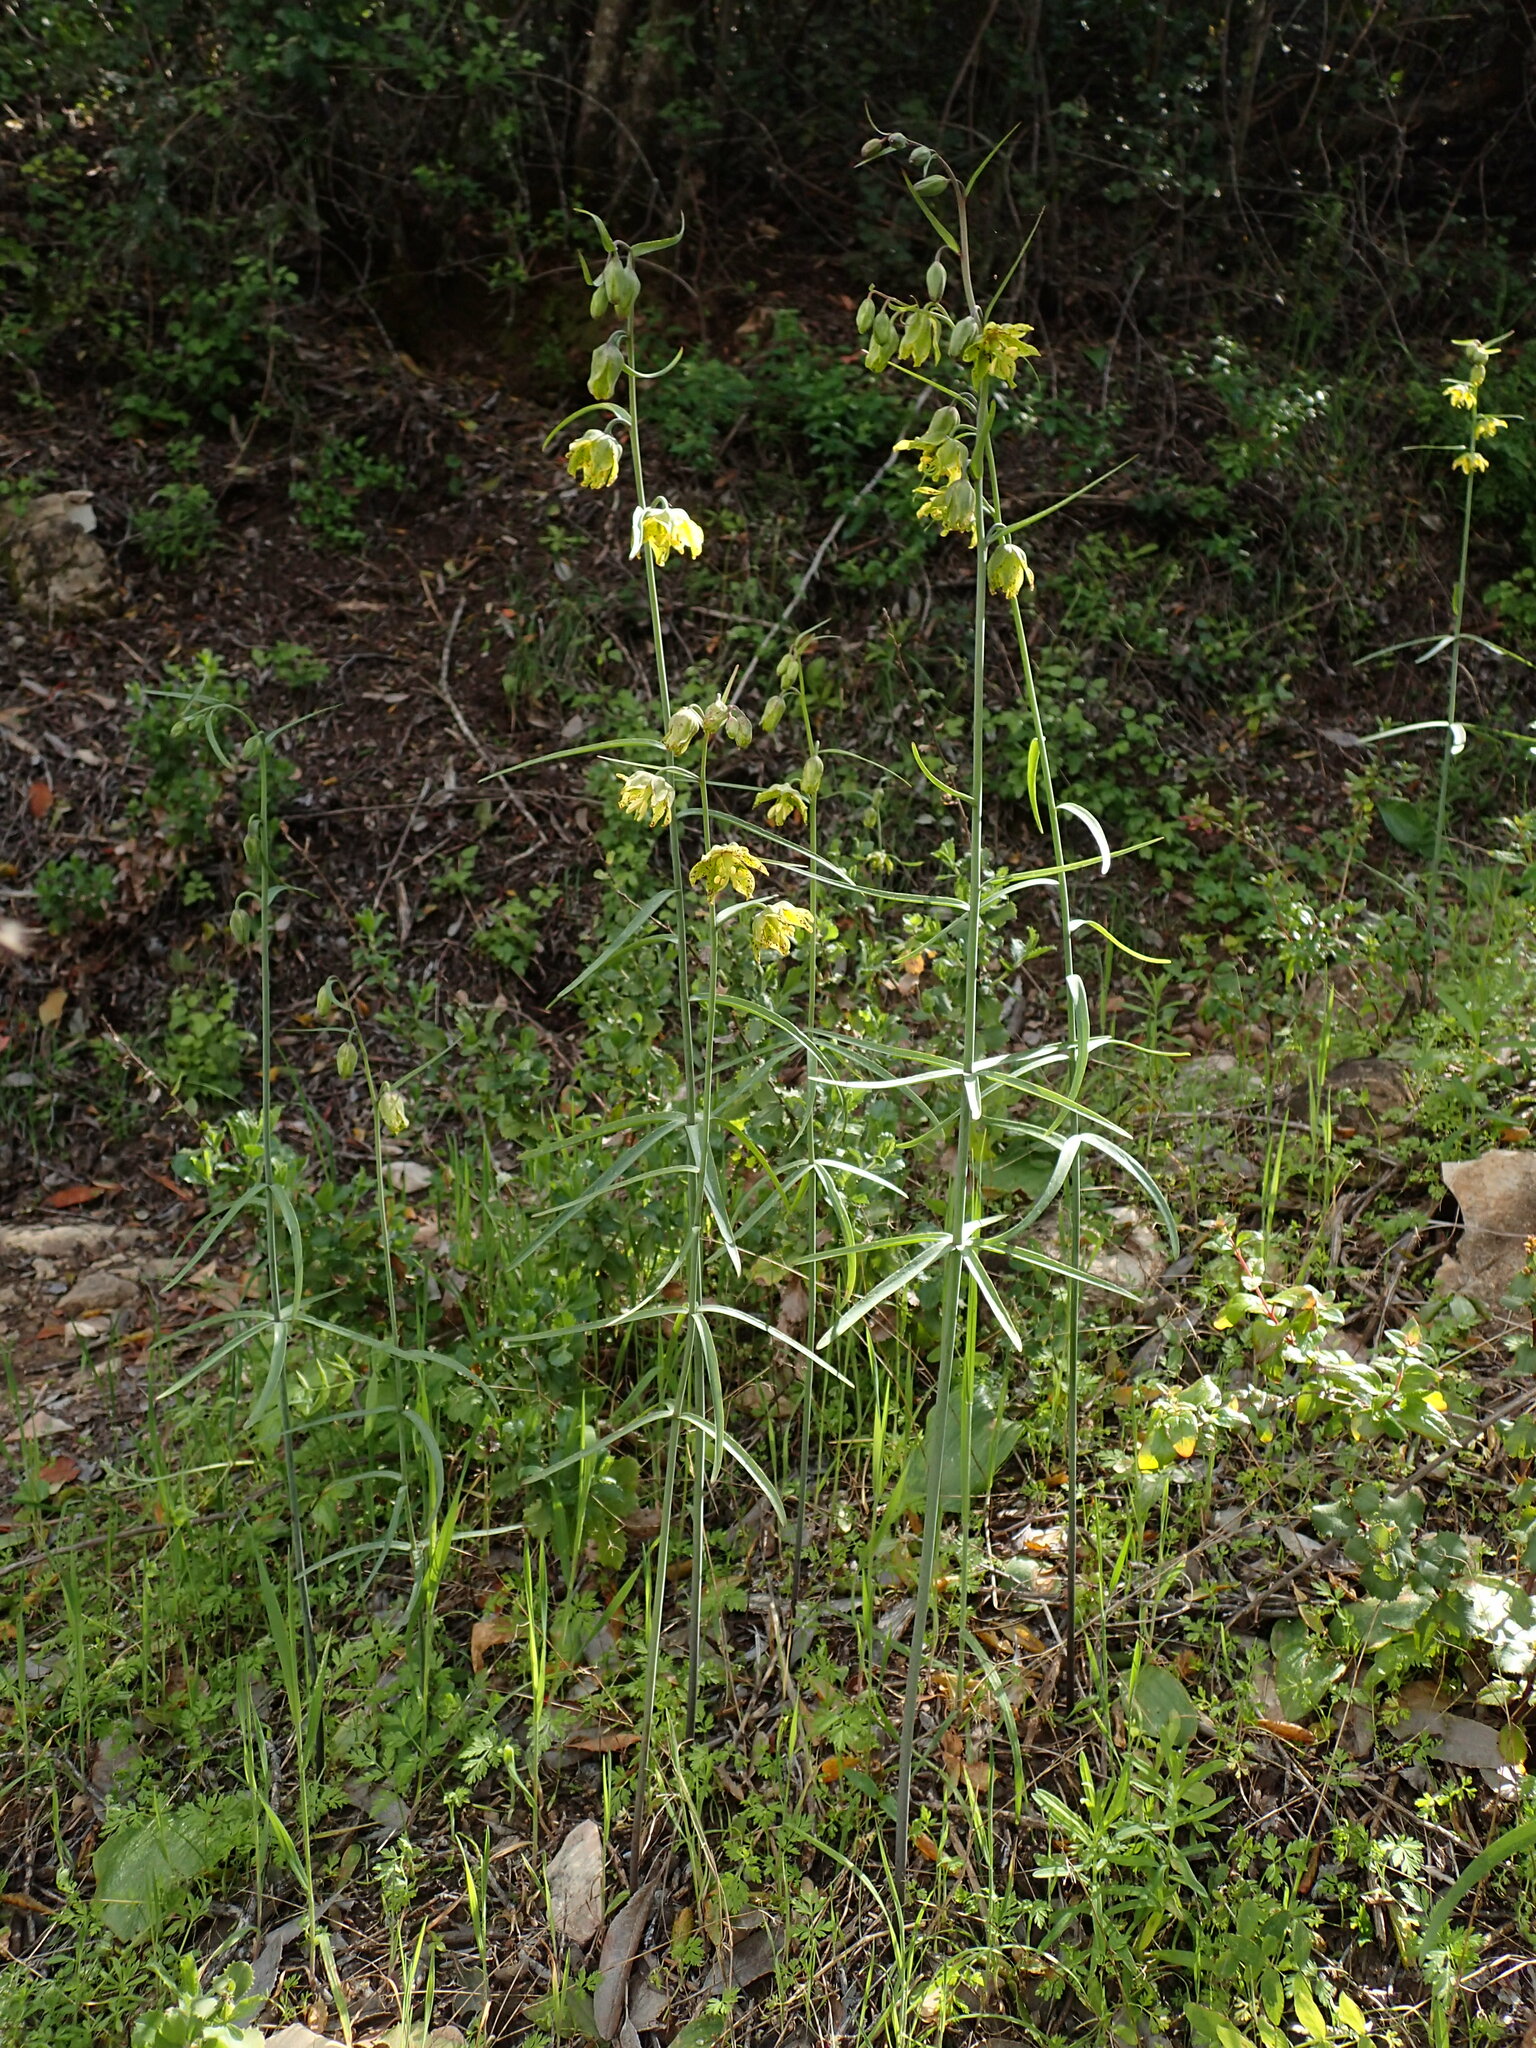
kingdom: Plantae
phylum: Tracheophyta
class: Liliopsida
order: Liliales
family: Liliaceae
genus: Fritillaria
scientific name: Fritillaria ojaiensis
